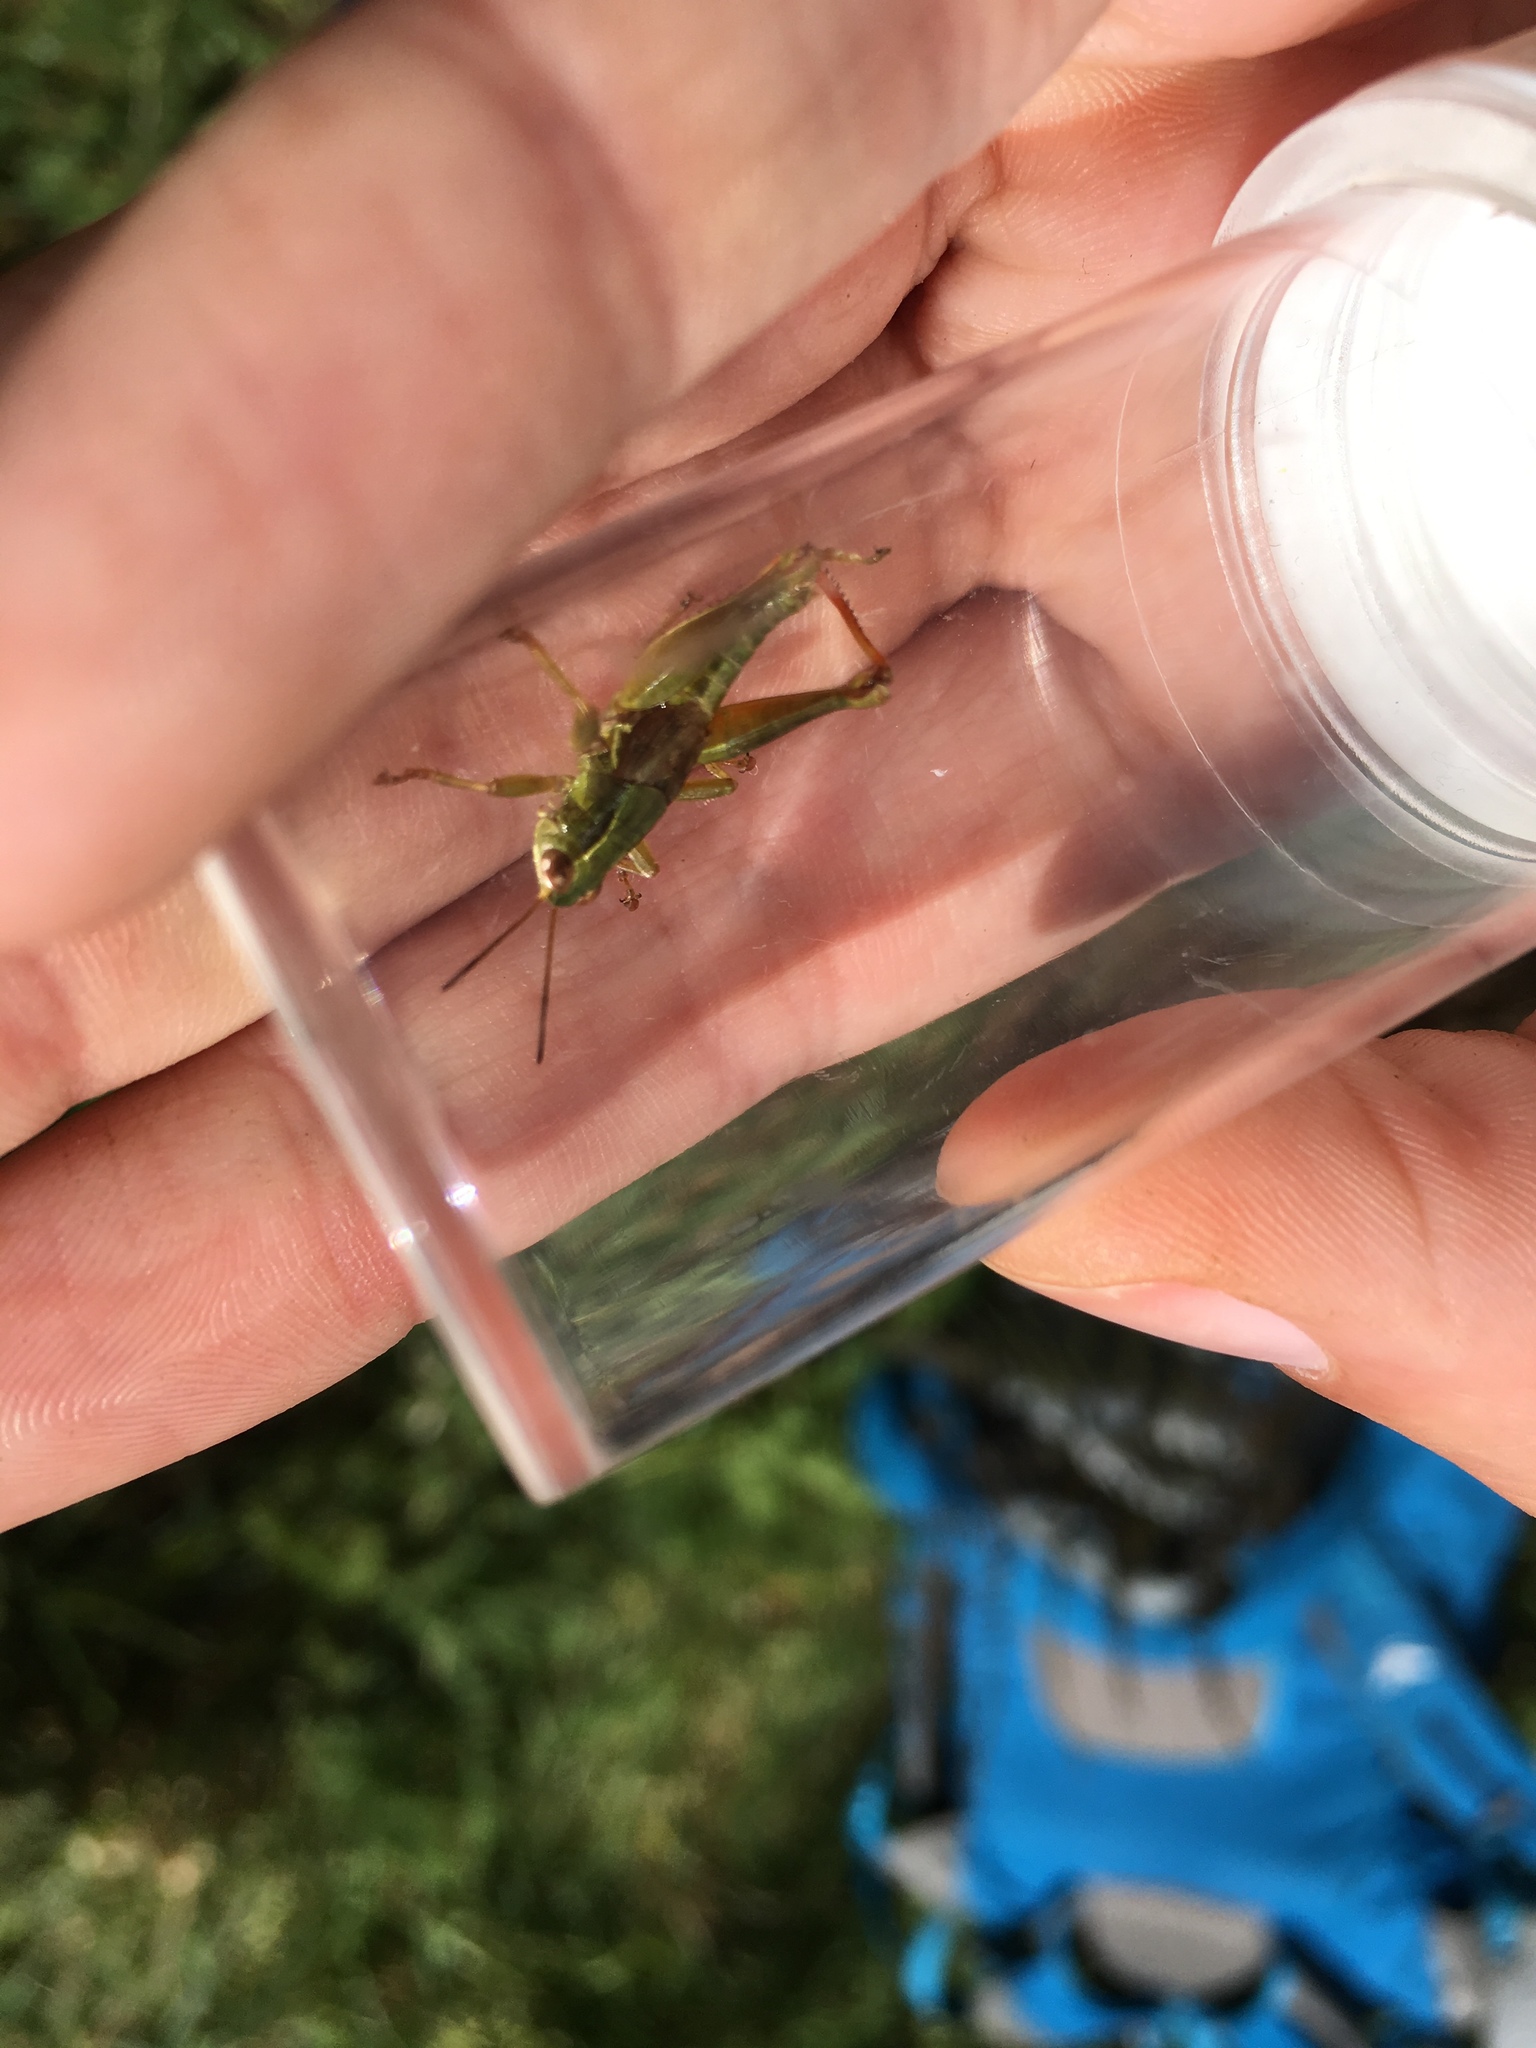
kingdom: Animalia
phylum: Arthropoda
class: Insecta
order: Orthoptera
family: Acrididae
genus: Phaulacridium
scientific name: Phaulacridium marginale
